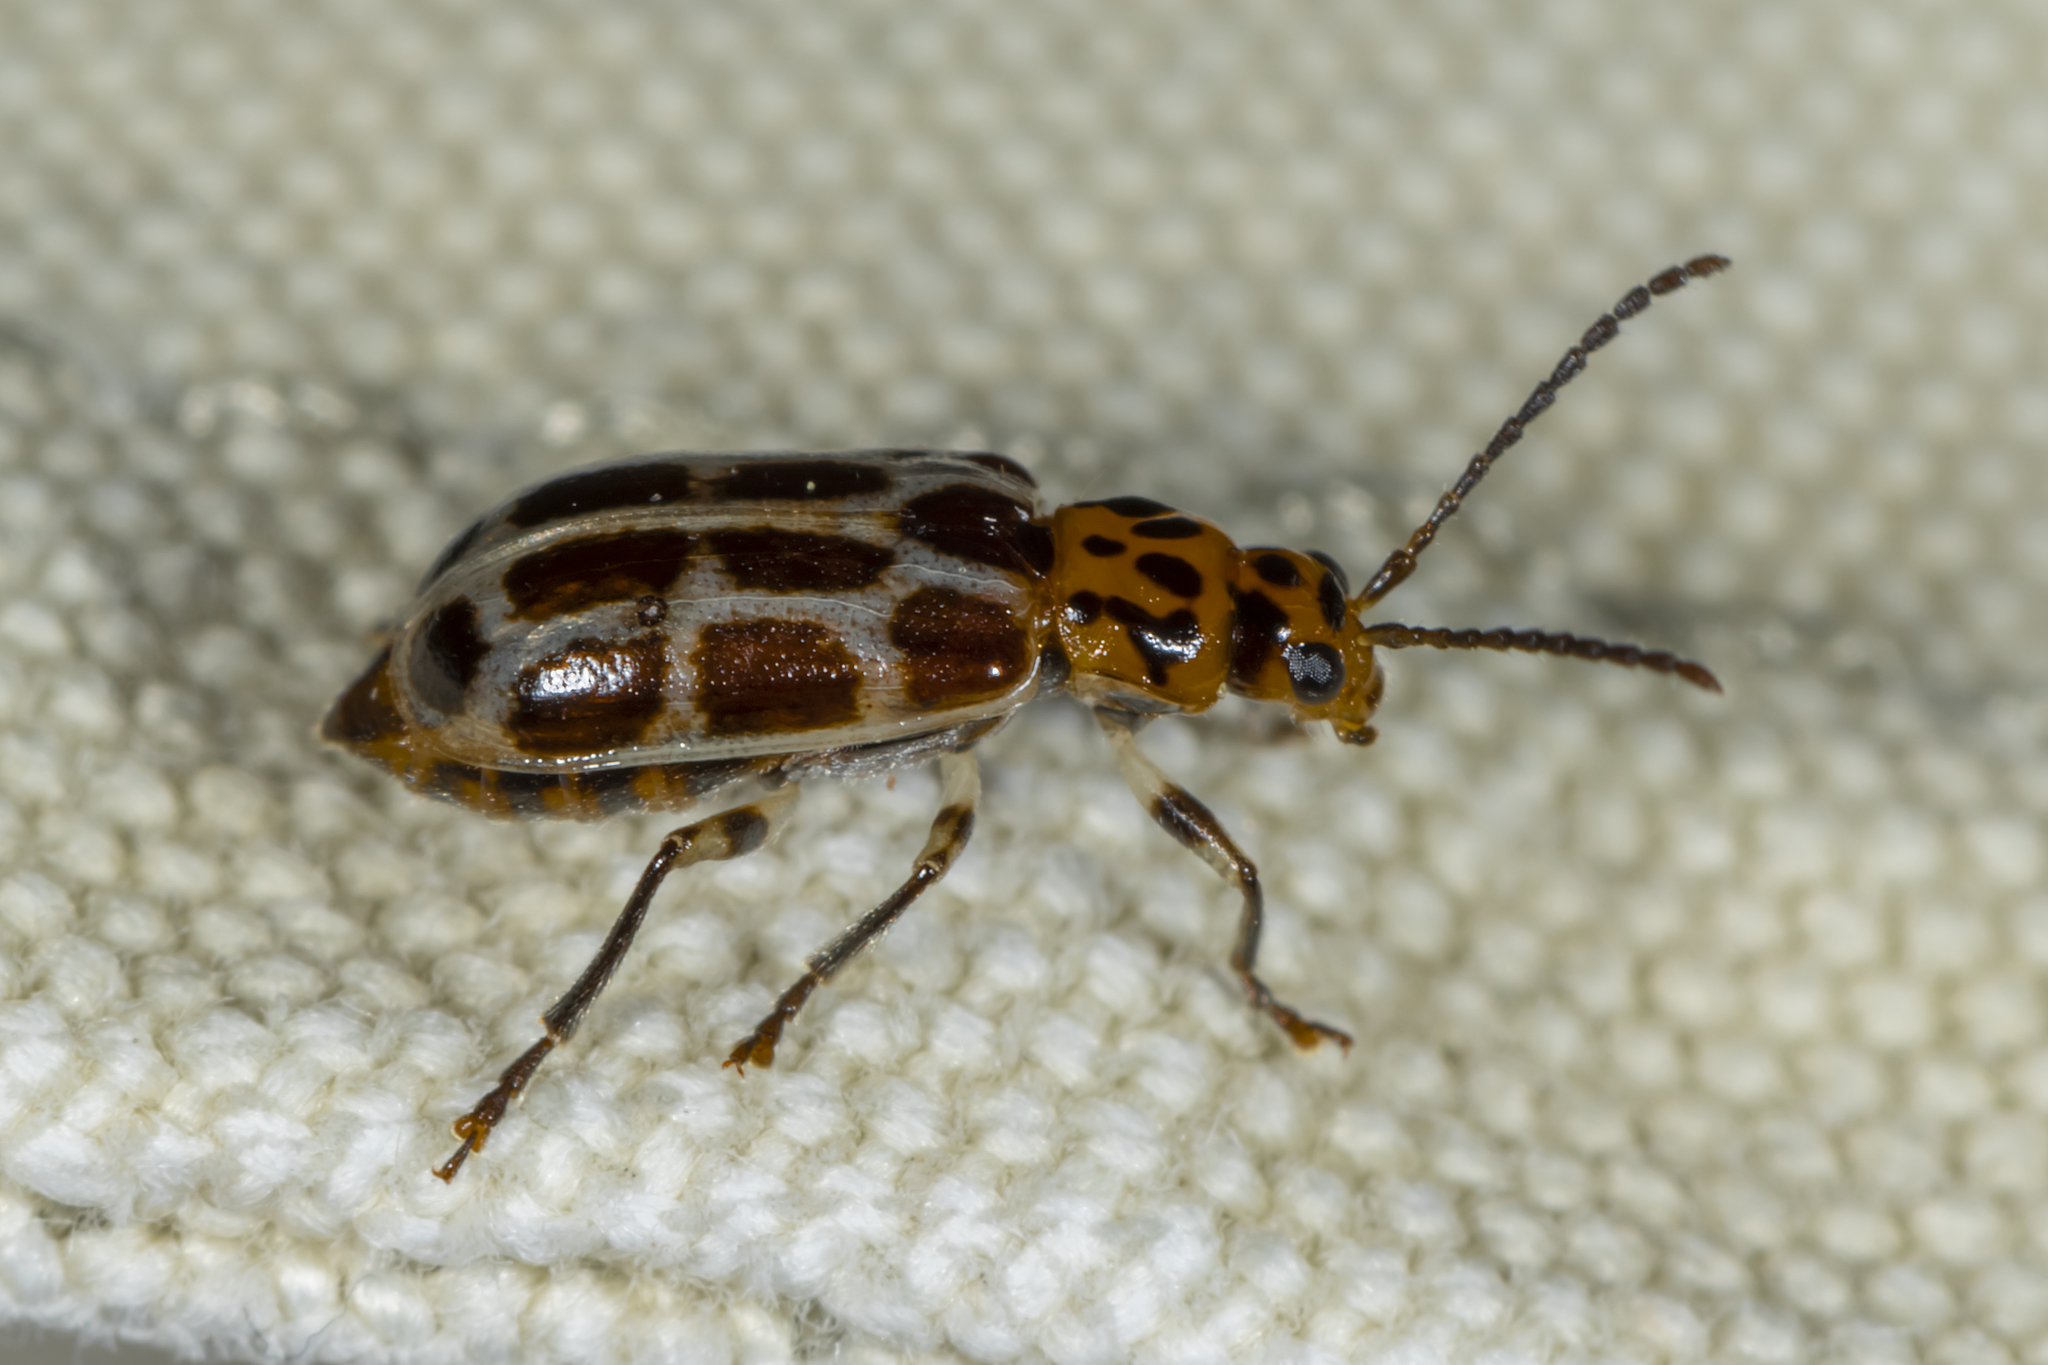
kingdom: Animalia
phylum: Arthropoda
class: Insecta
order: Coleoptera
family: Chrysomelidae
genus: Anisobrotica
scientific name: Anisobrotica
